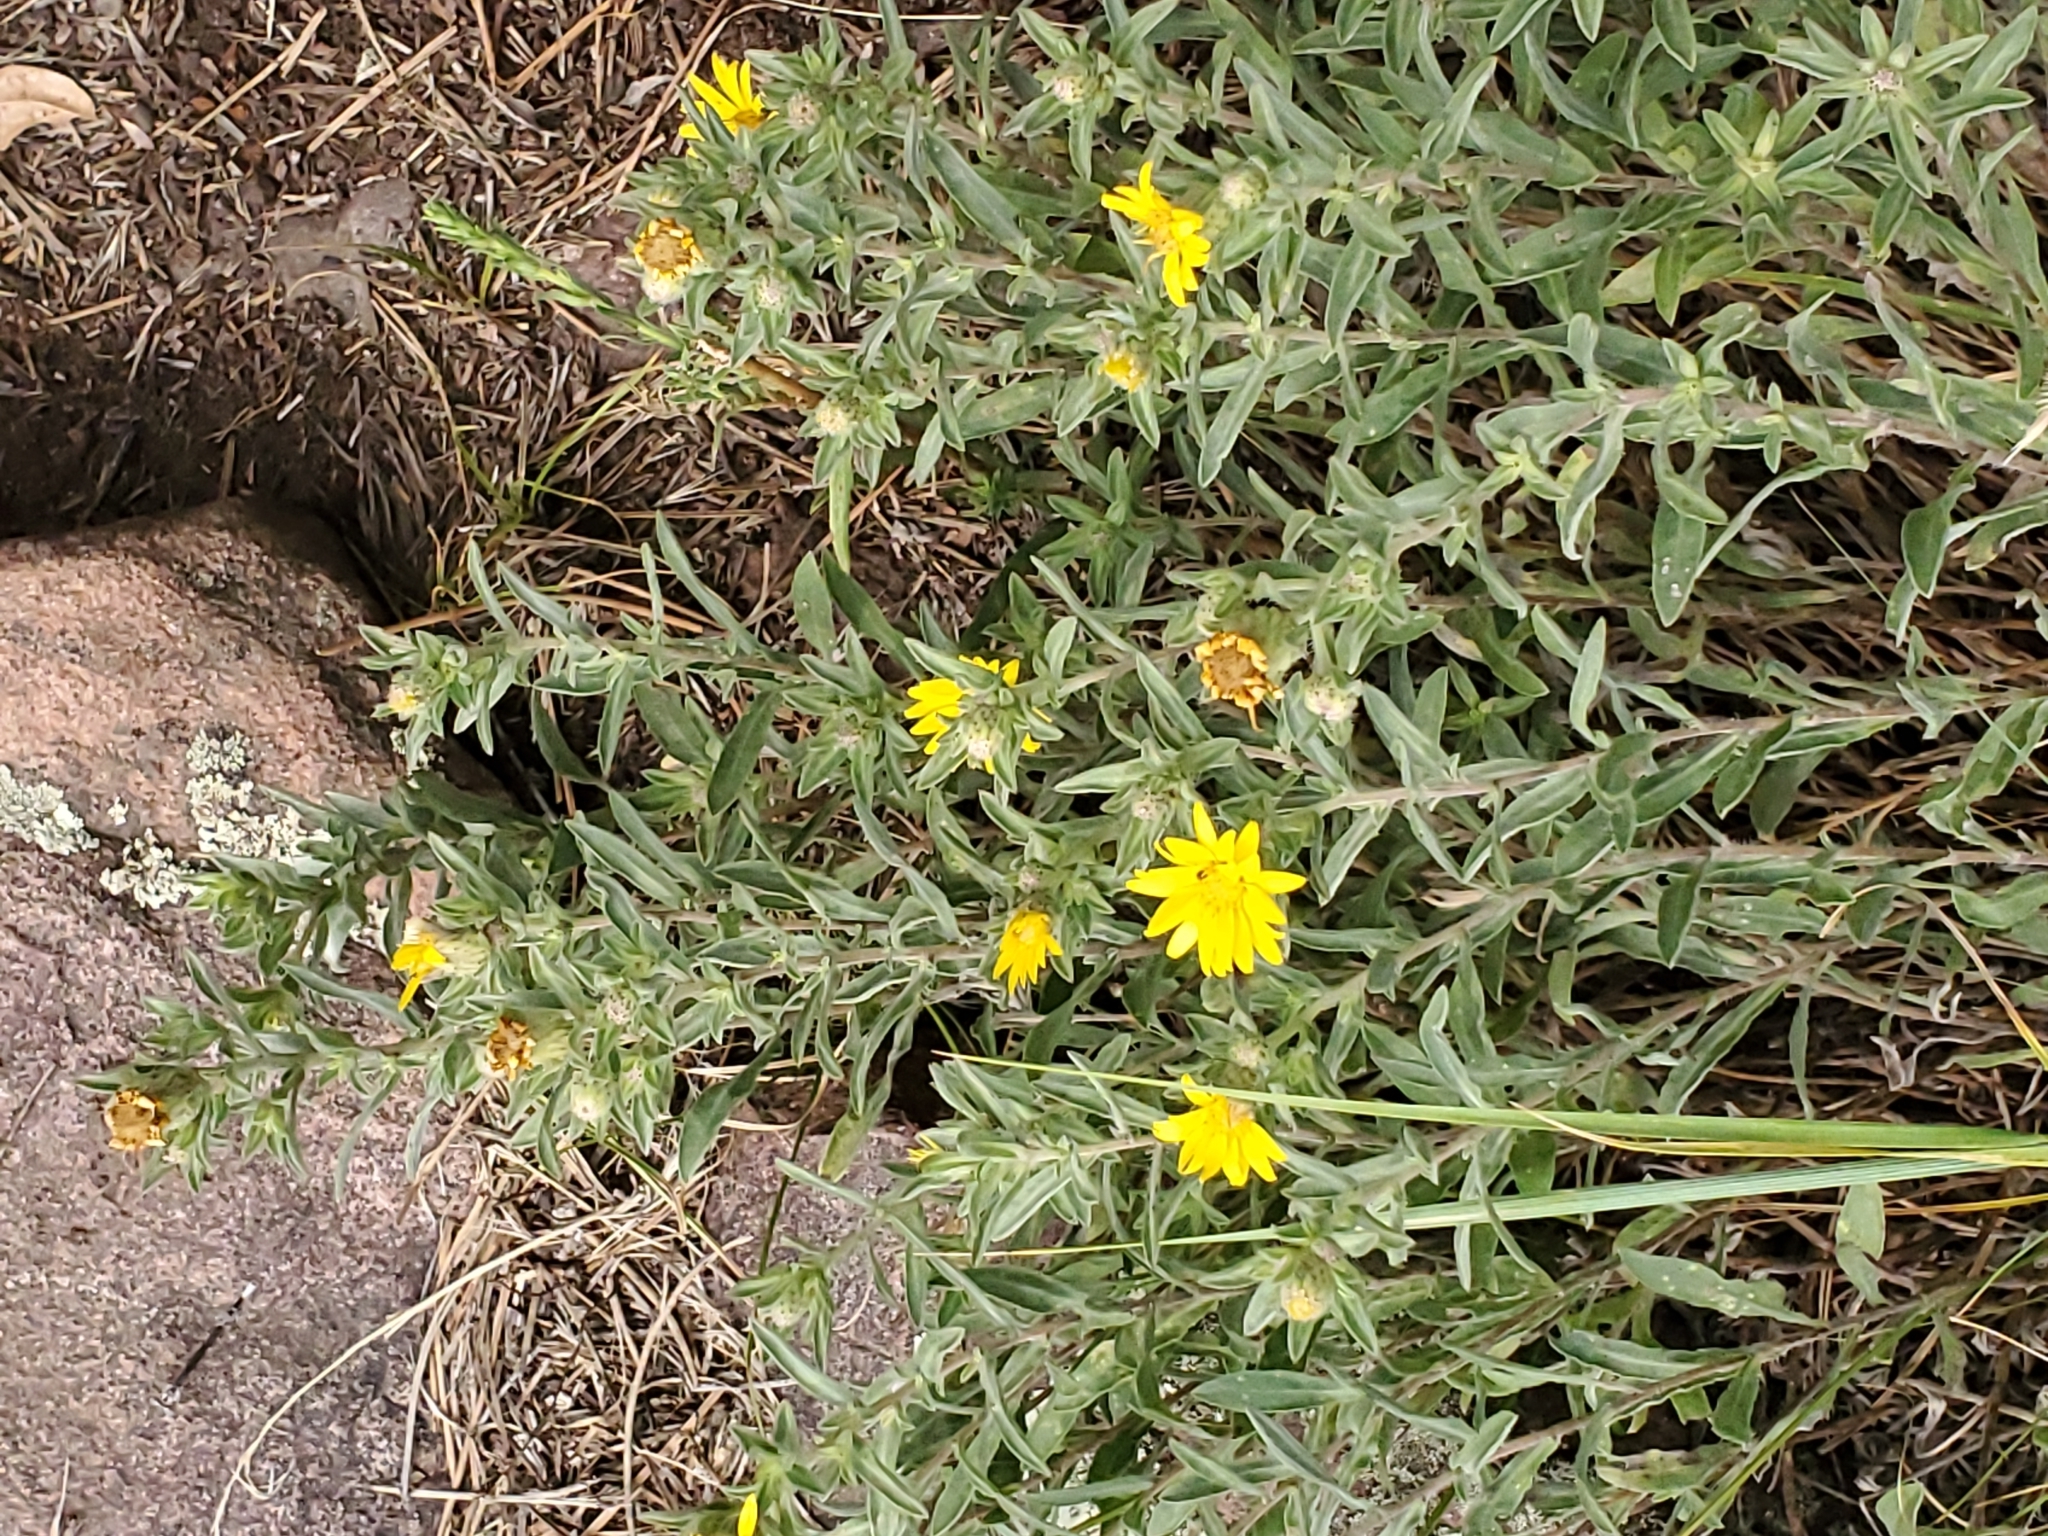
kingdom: Plantae
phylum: Tracheophyta
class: Magnoliopsida
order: Asterales
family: Asteraceae
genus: Heterotheca
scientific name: Heterotheca villosa
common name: Hairy false goldenaster
